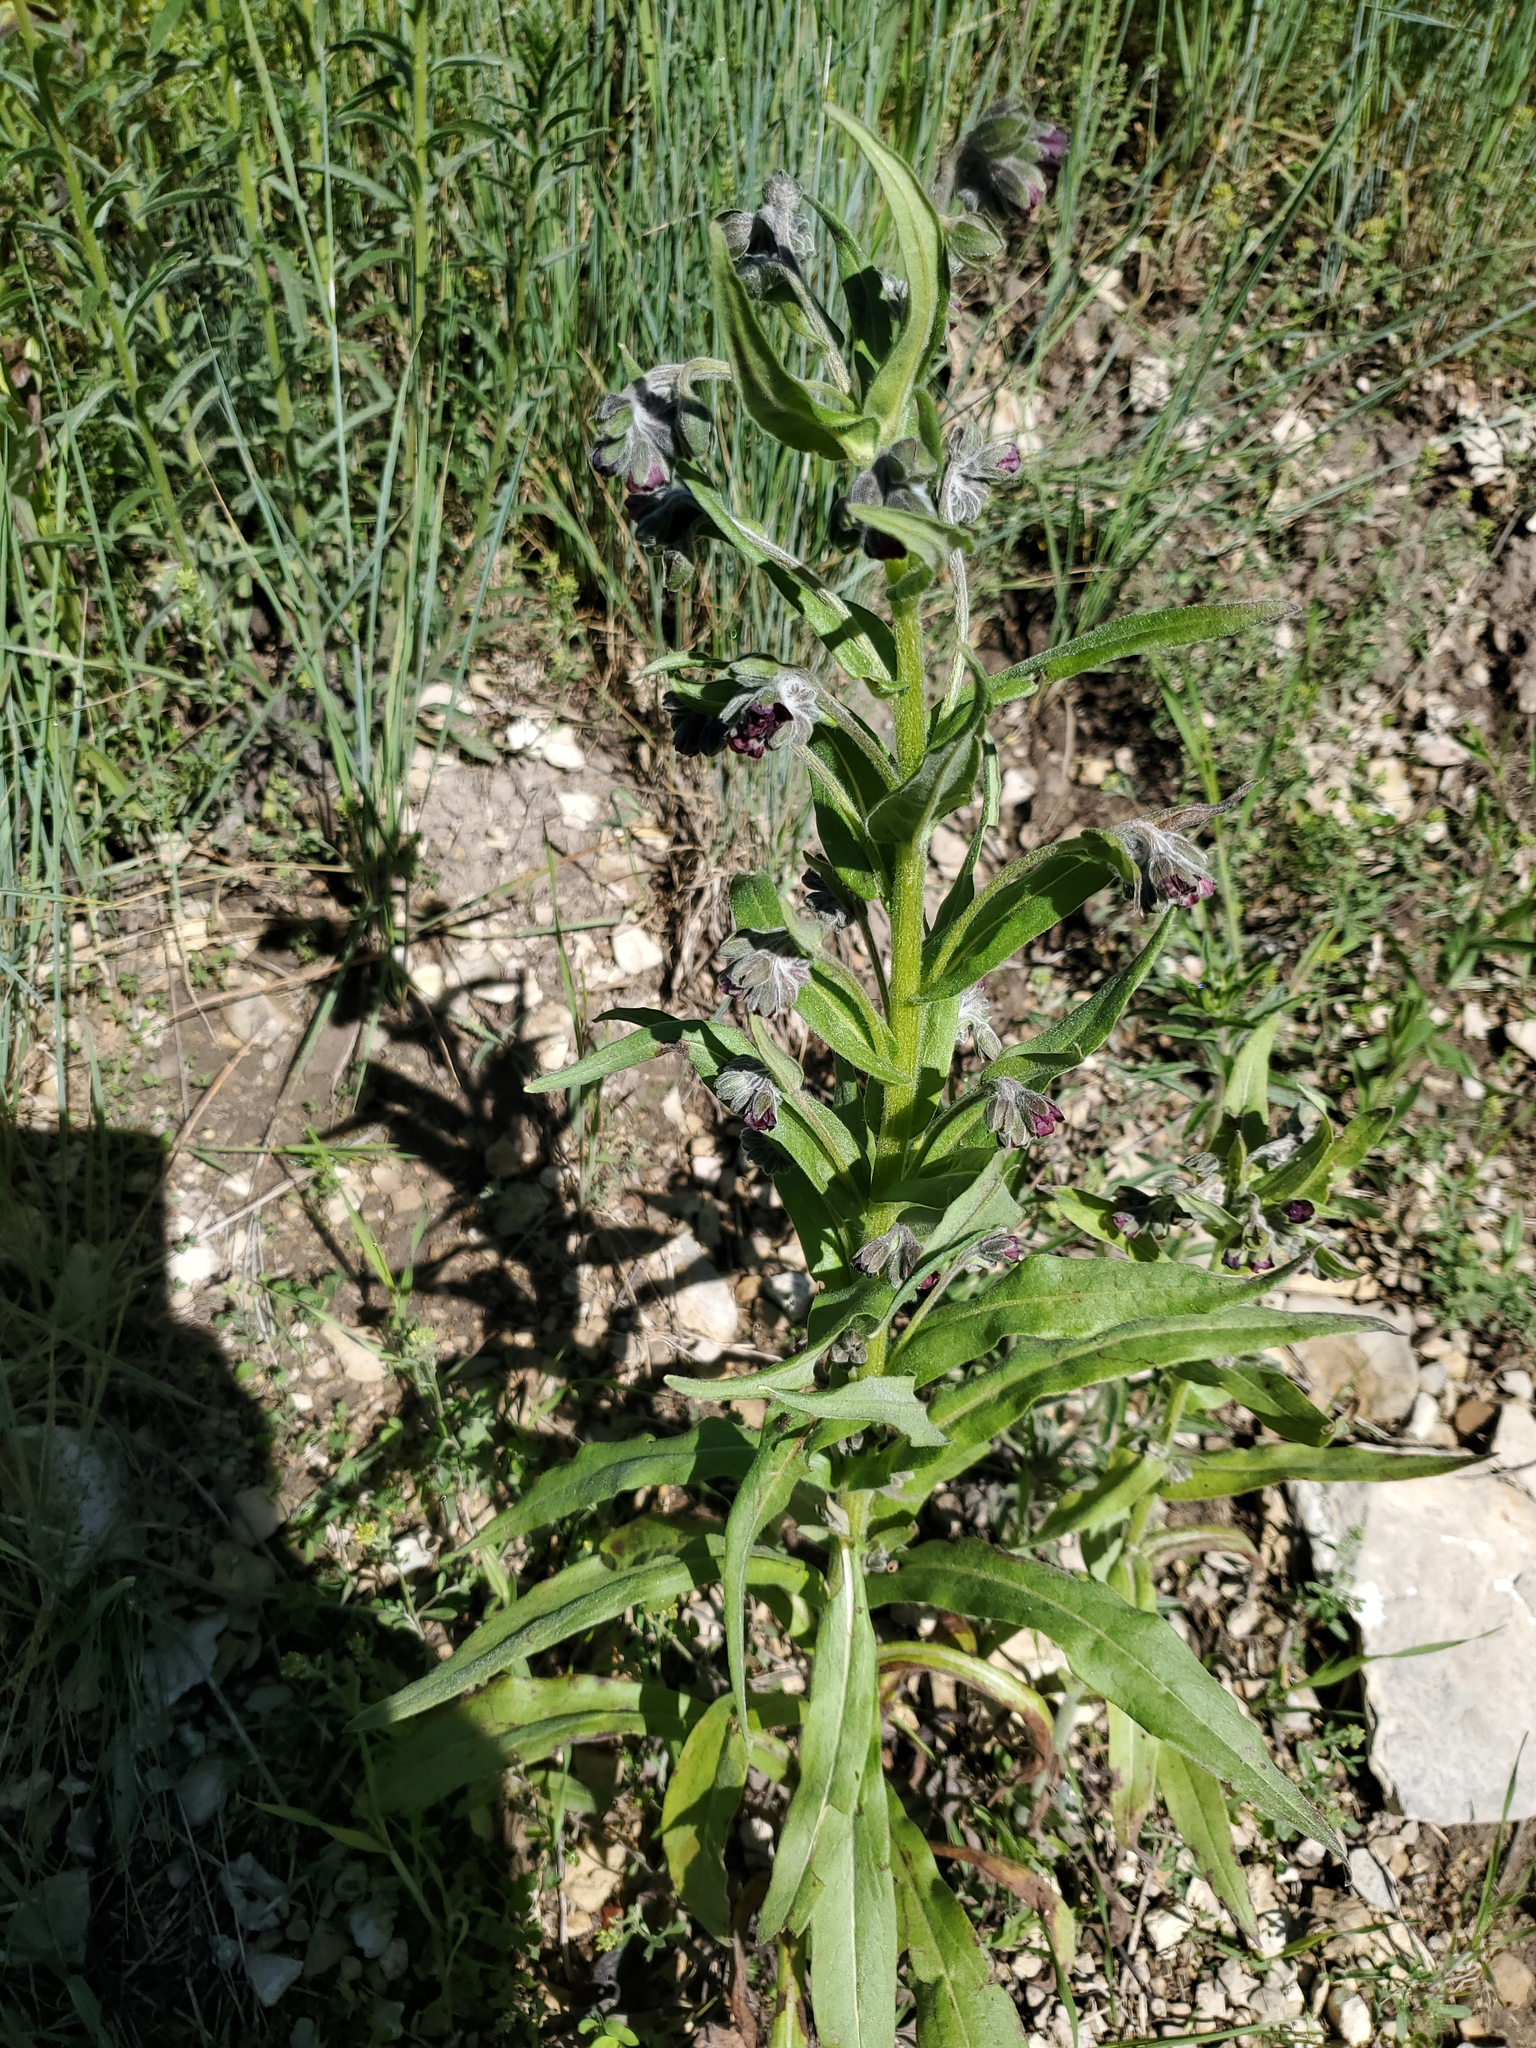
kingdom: Plantae
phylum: Tracheophyta
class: Magnoliopsida
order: Boraginales
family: Boraginaceae
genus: Cynoglossum
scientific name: Cynoglossum officinale
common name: Hound's-tongue
